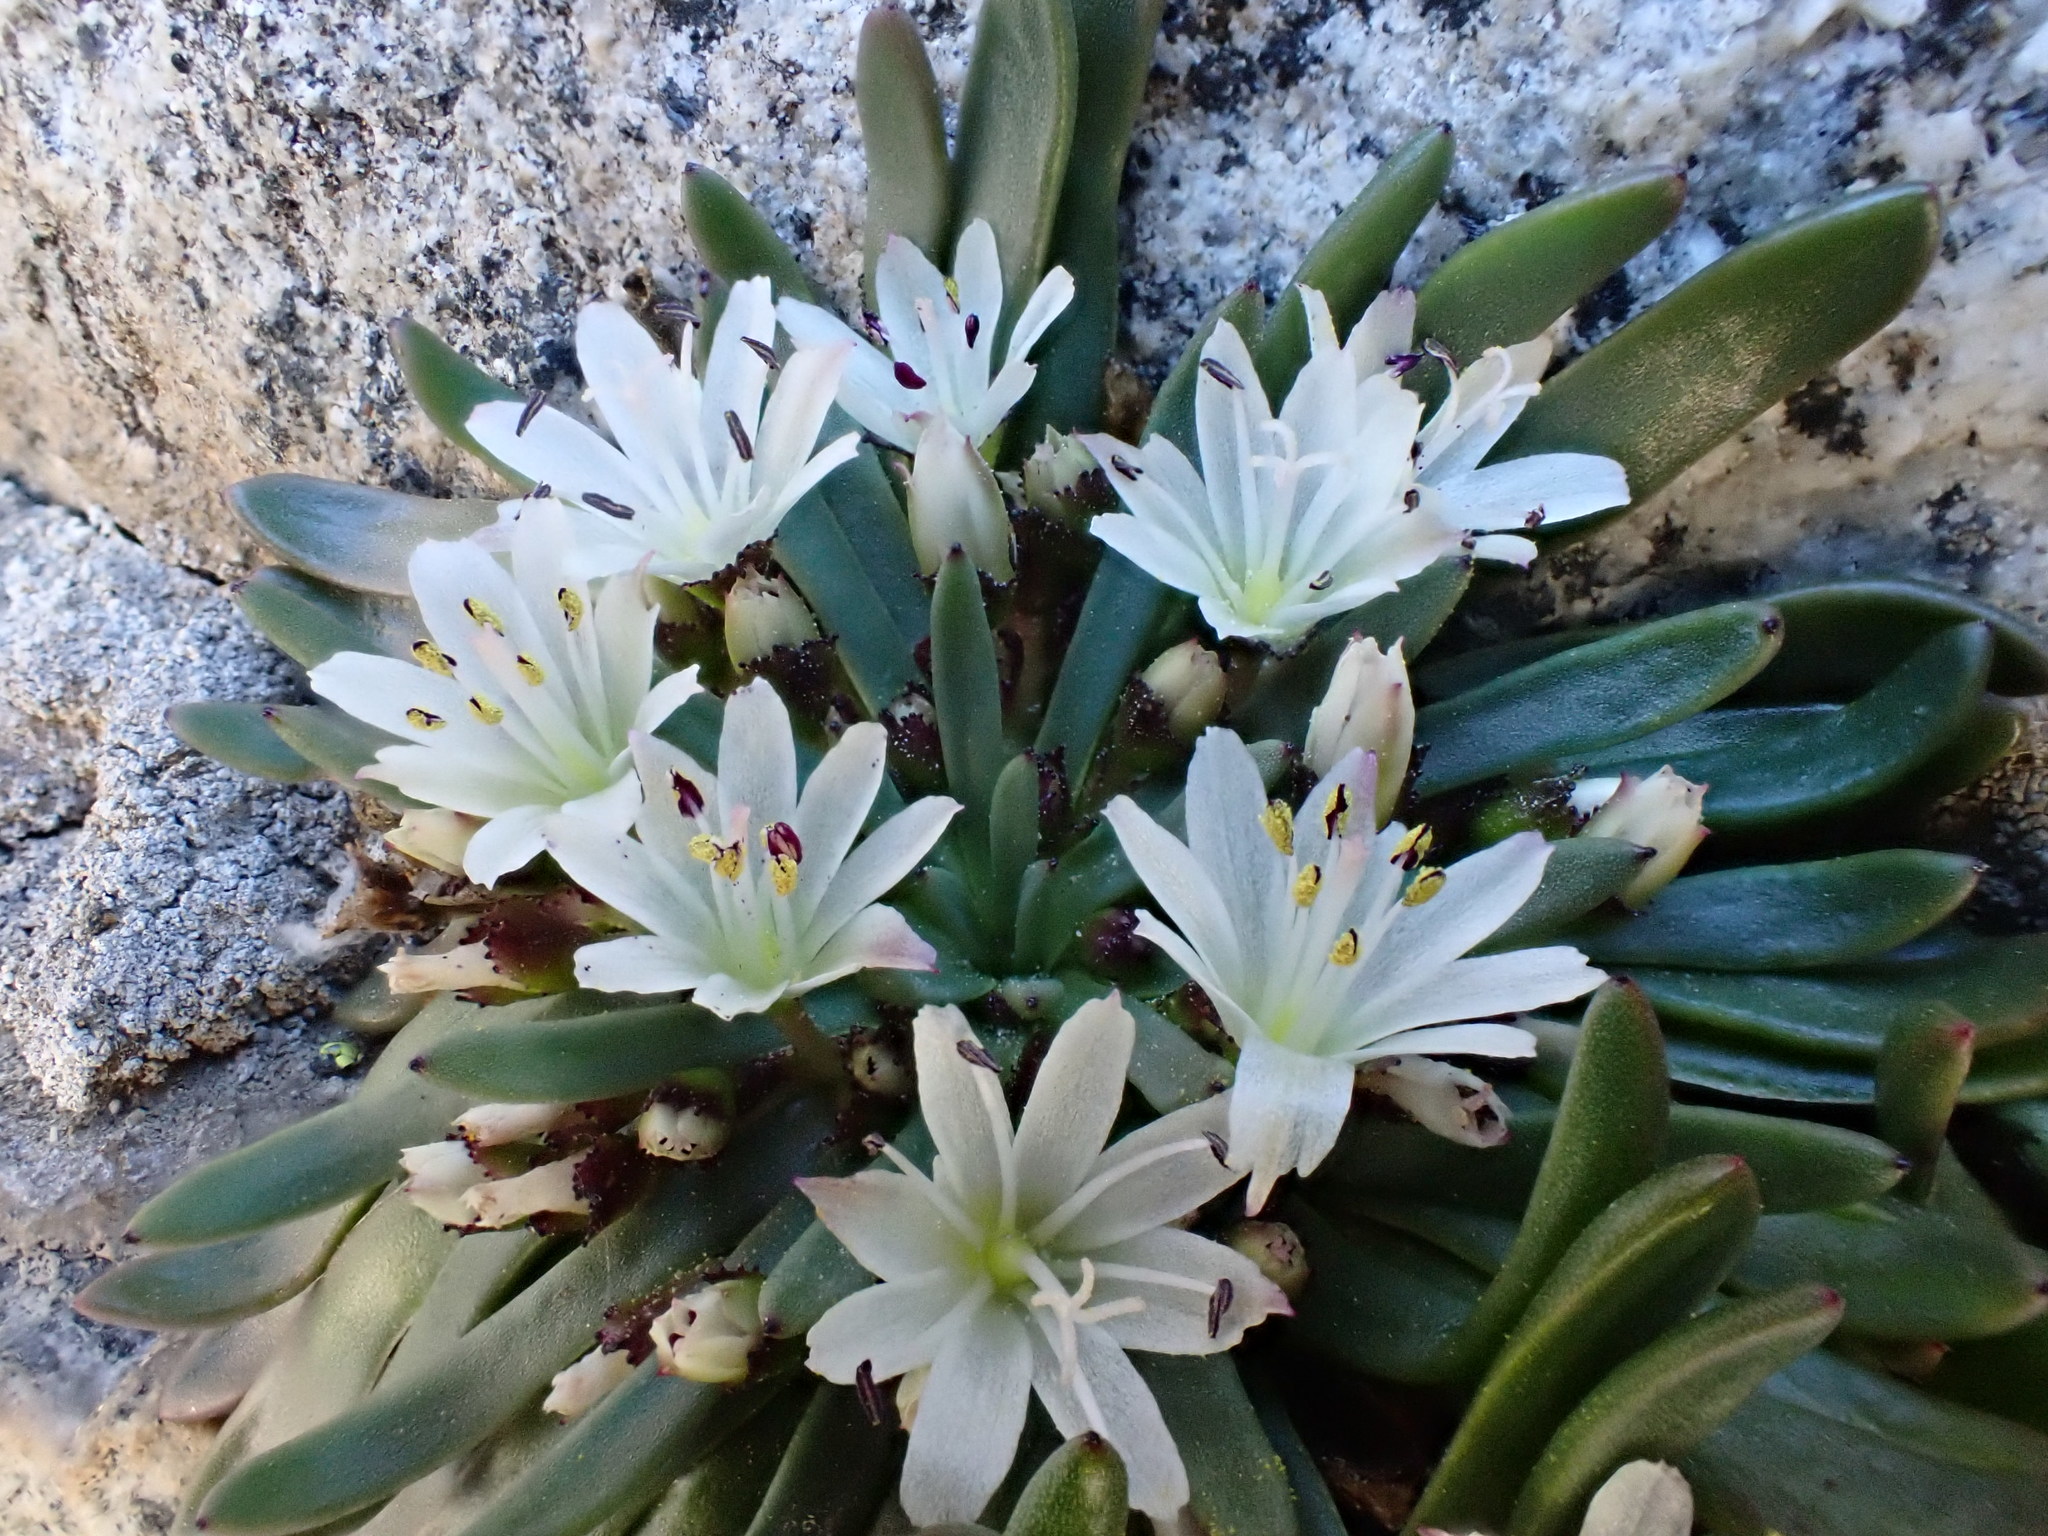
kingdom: Plantae
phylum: Tracheophyta
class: Magnoliopsida
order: Caryophyllales
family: Montiaceae
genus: Lewisia
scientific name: Lewisia glandulosa
